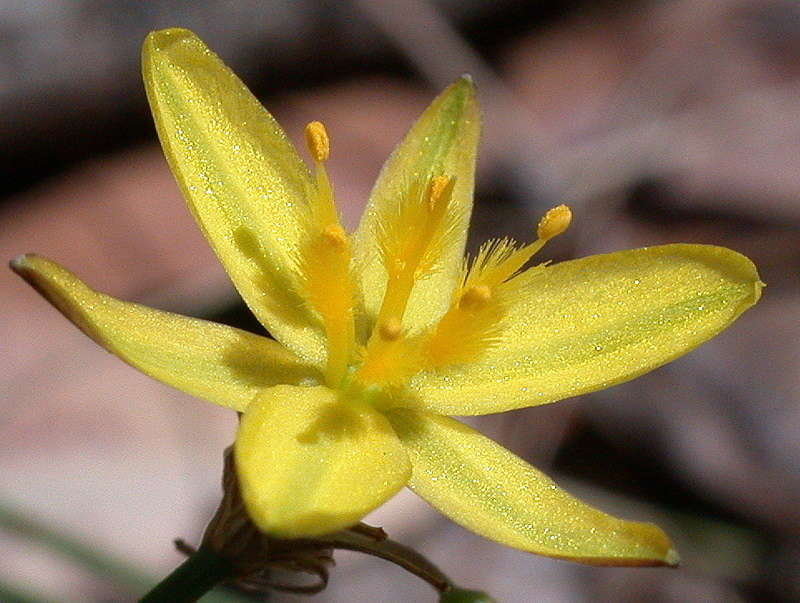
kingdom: Plantae
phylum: Tracheophyta
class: Liliopsida
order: Asparagales
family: Asphodelaceae
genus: Tricoryne
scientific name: Tricoryne elatior
